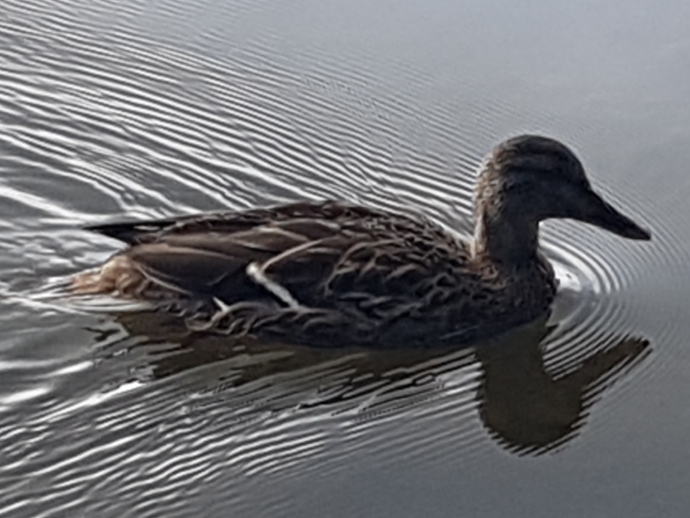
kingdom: Animalia
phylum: Chordata
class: Aves
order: Anseriformes
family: Anatidae
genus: Anas
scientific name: Anas platyrhynchos
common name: Mallard
